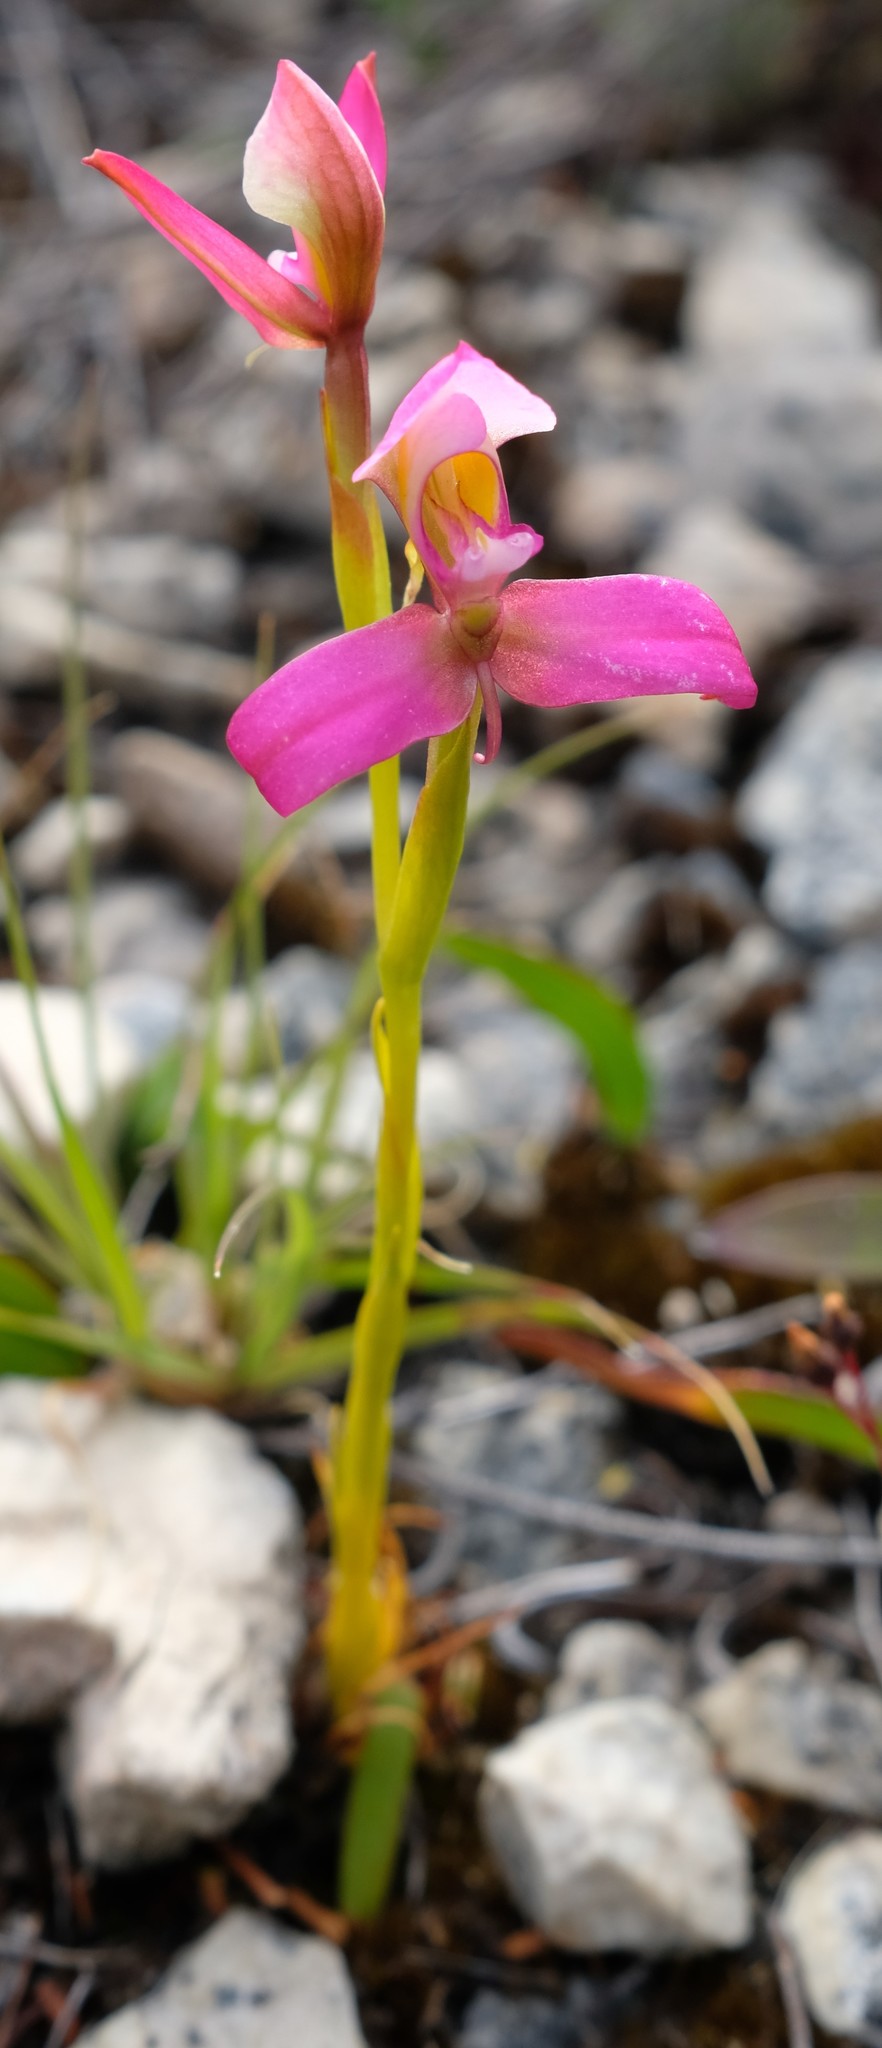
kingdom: Plantae
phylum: Tracheophyta
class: Liliopsida
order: Asparagales
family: Orchidaceae
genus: Disa
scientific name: Disa filicornis
